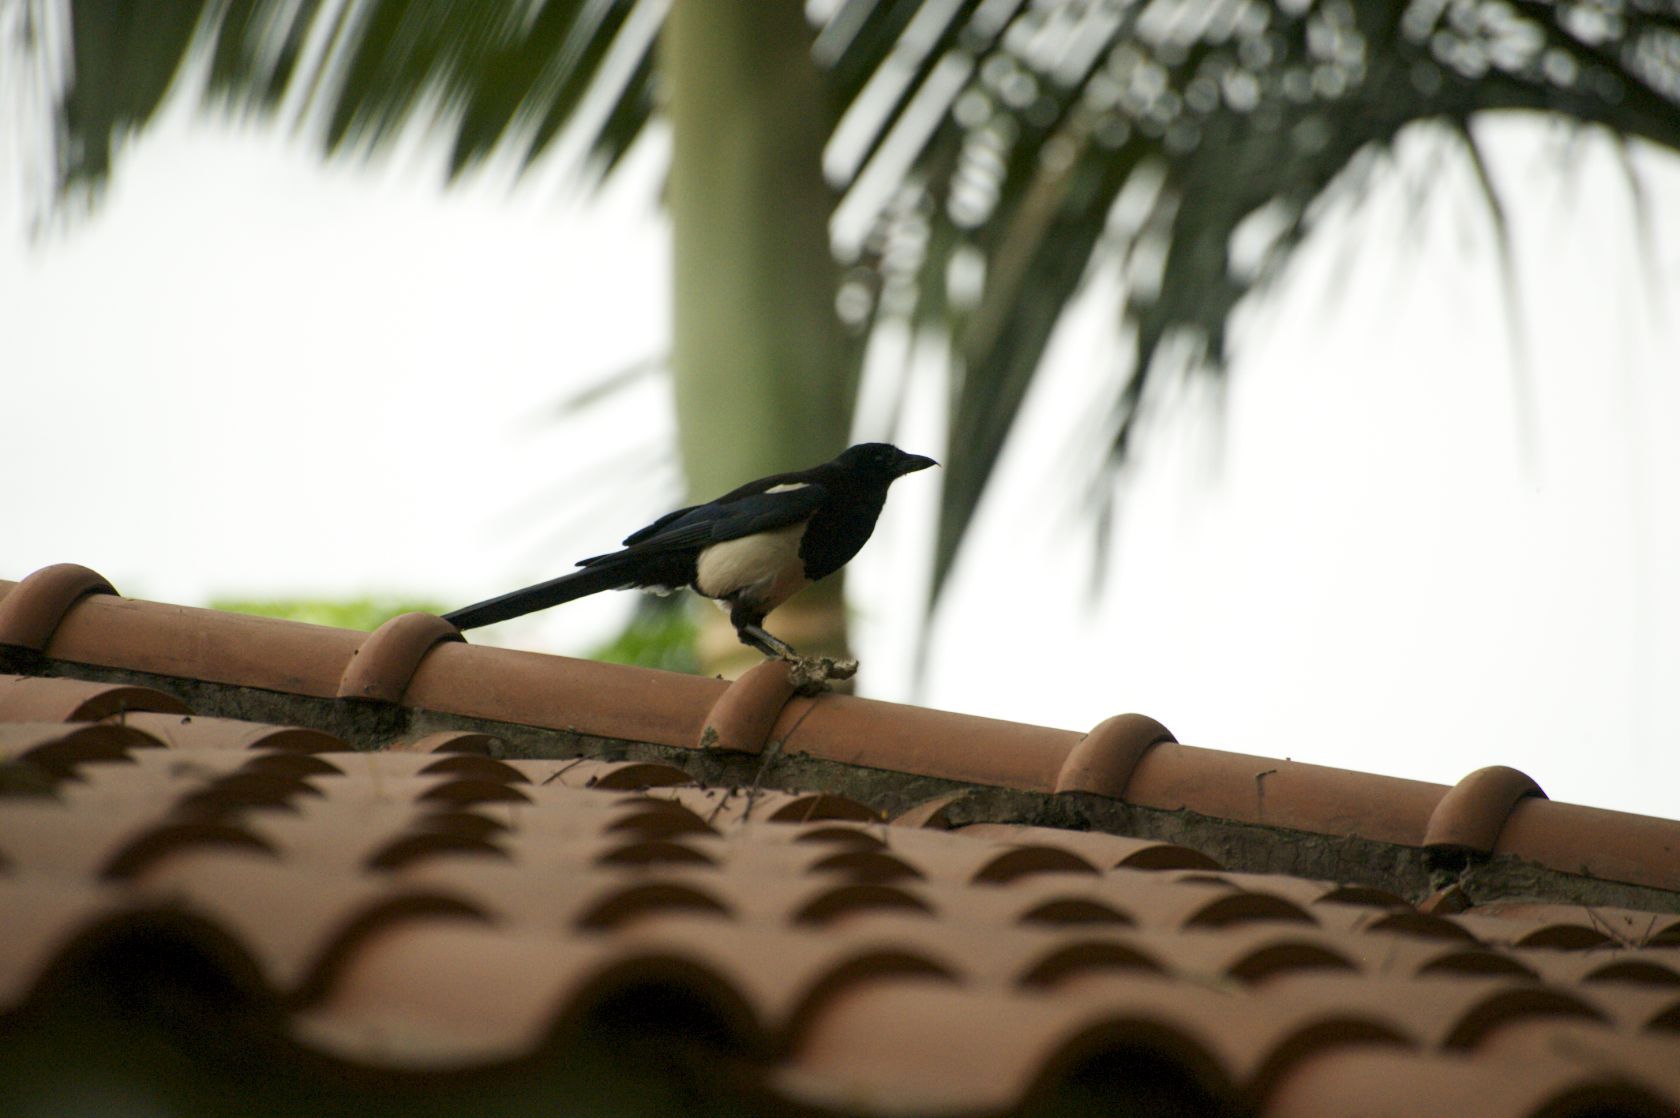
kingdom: Animalia
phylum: Chordata
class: Aves
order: Passeriformes
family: Corvidae
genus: Pica
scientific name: Pica serica
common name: Oriental magpie
